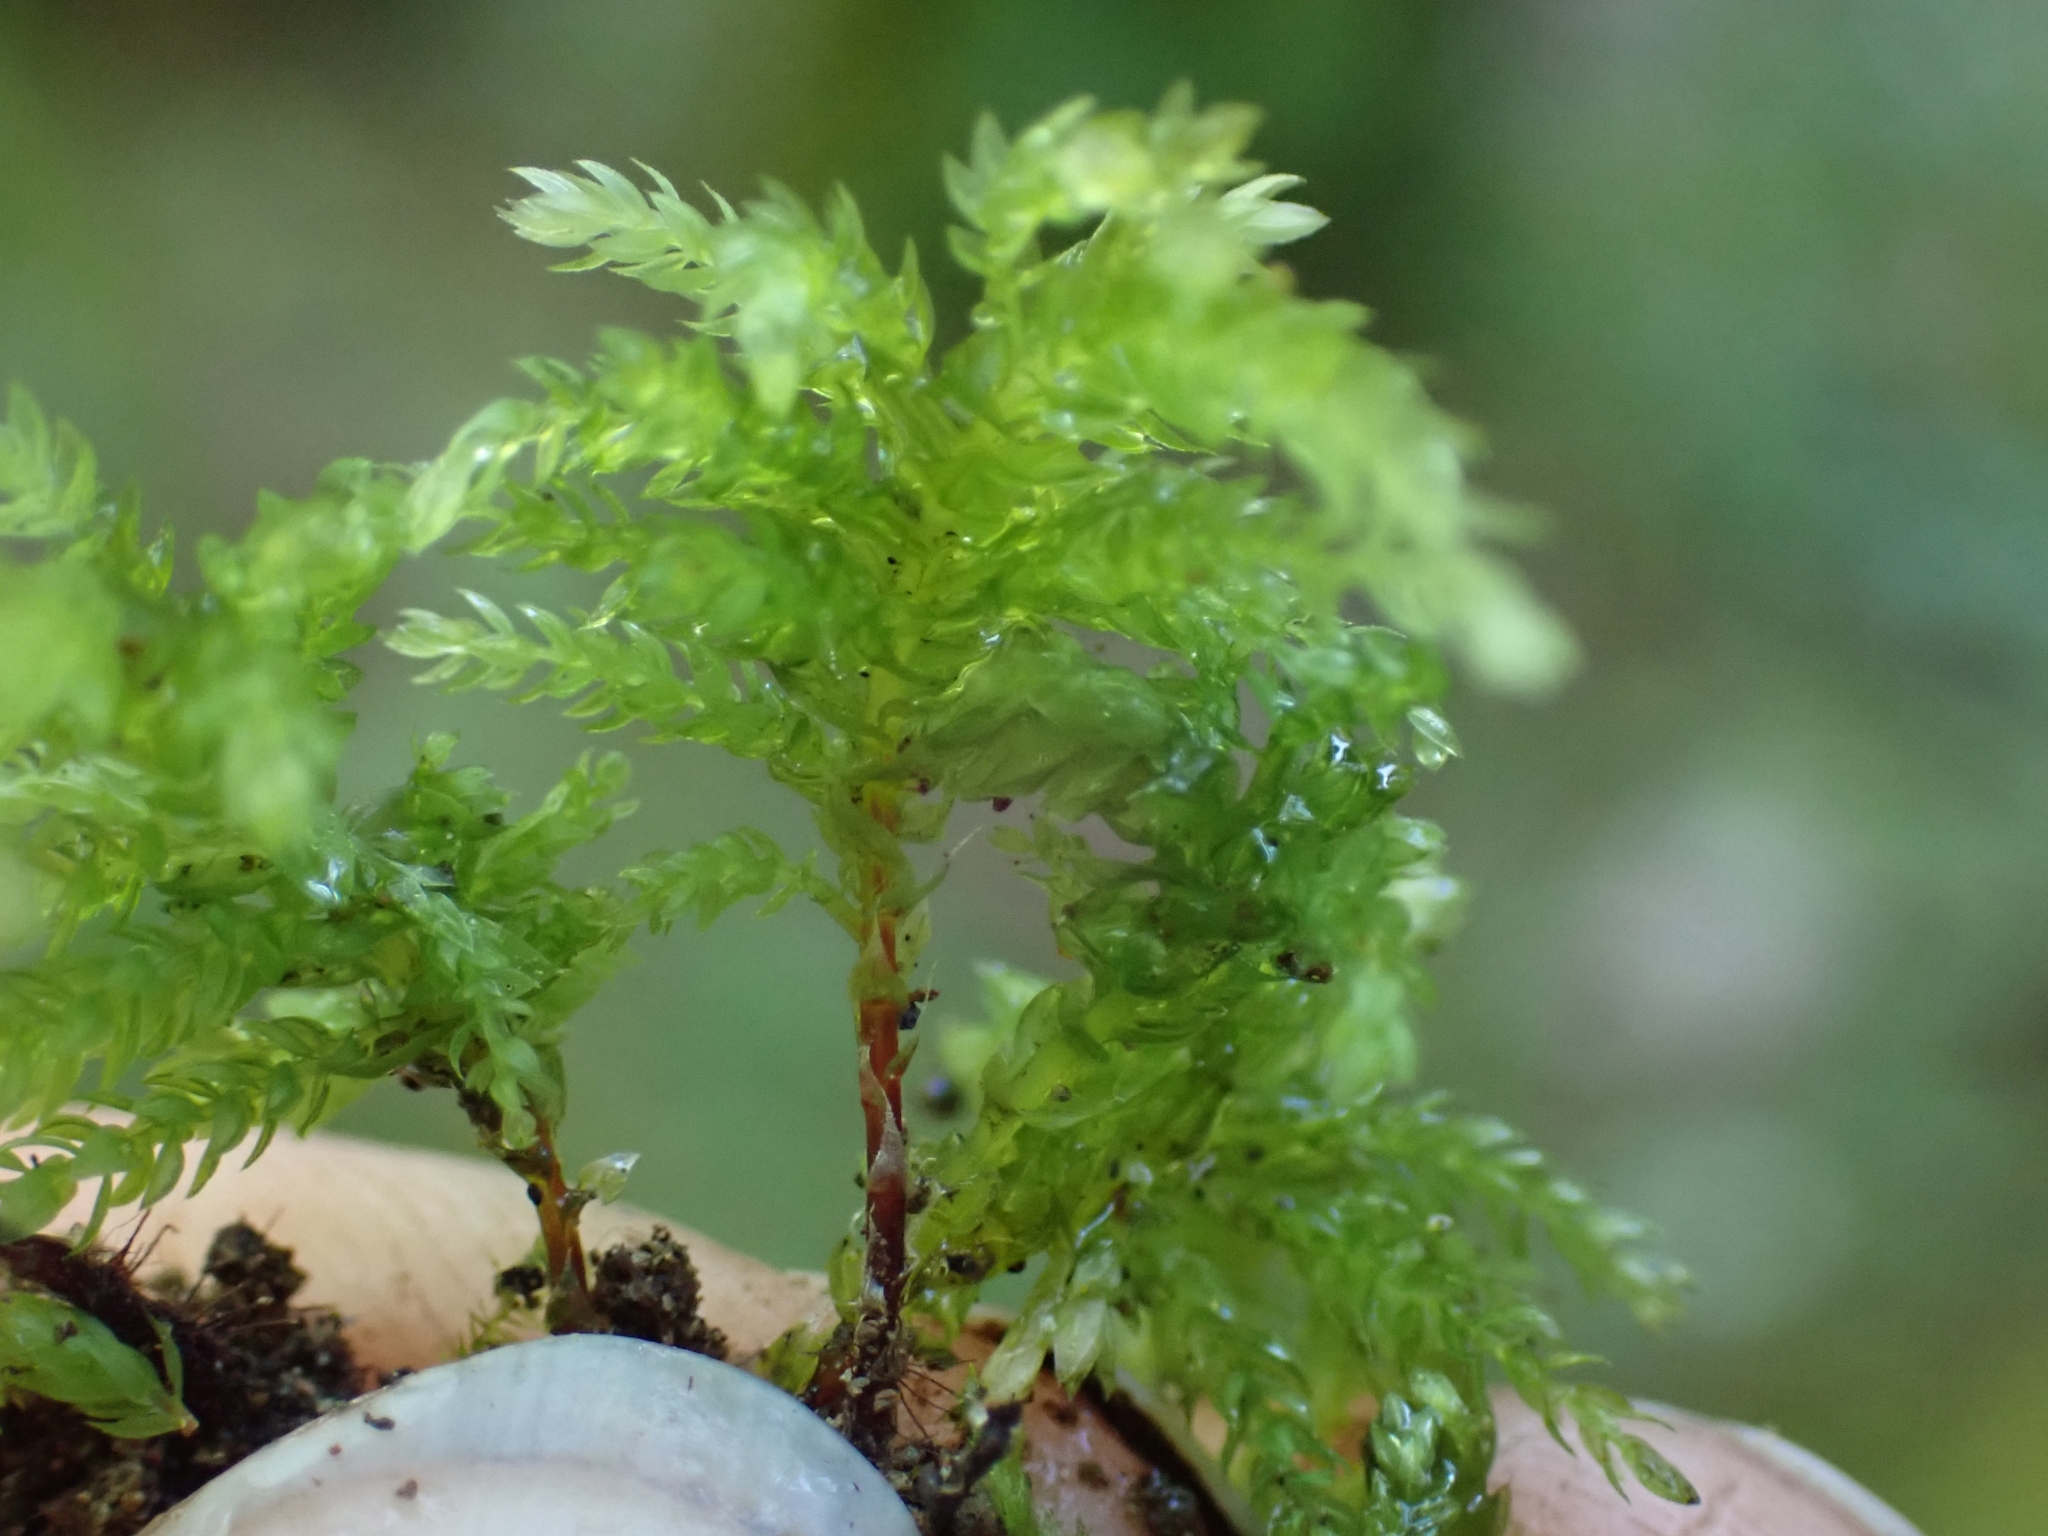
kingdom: Plantae
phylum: Bryophyta
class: Bryopsida
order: Bryales
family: Mniaceae
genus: Leucolepis
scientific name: Leucolepis acanthoneura
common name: Leucolepis umbrella moss
